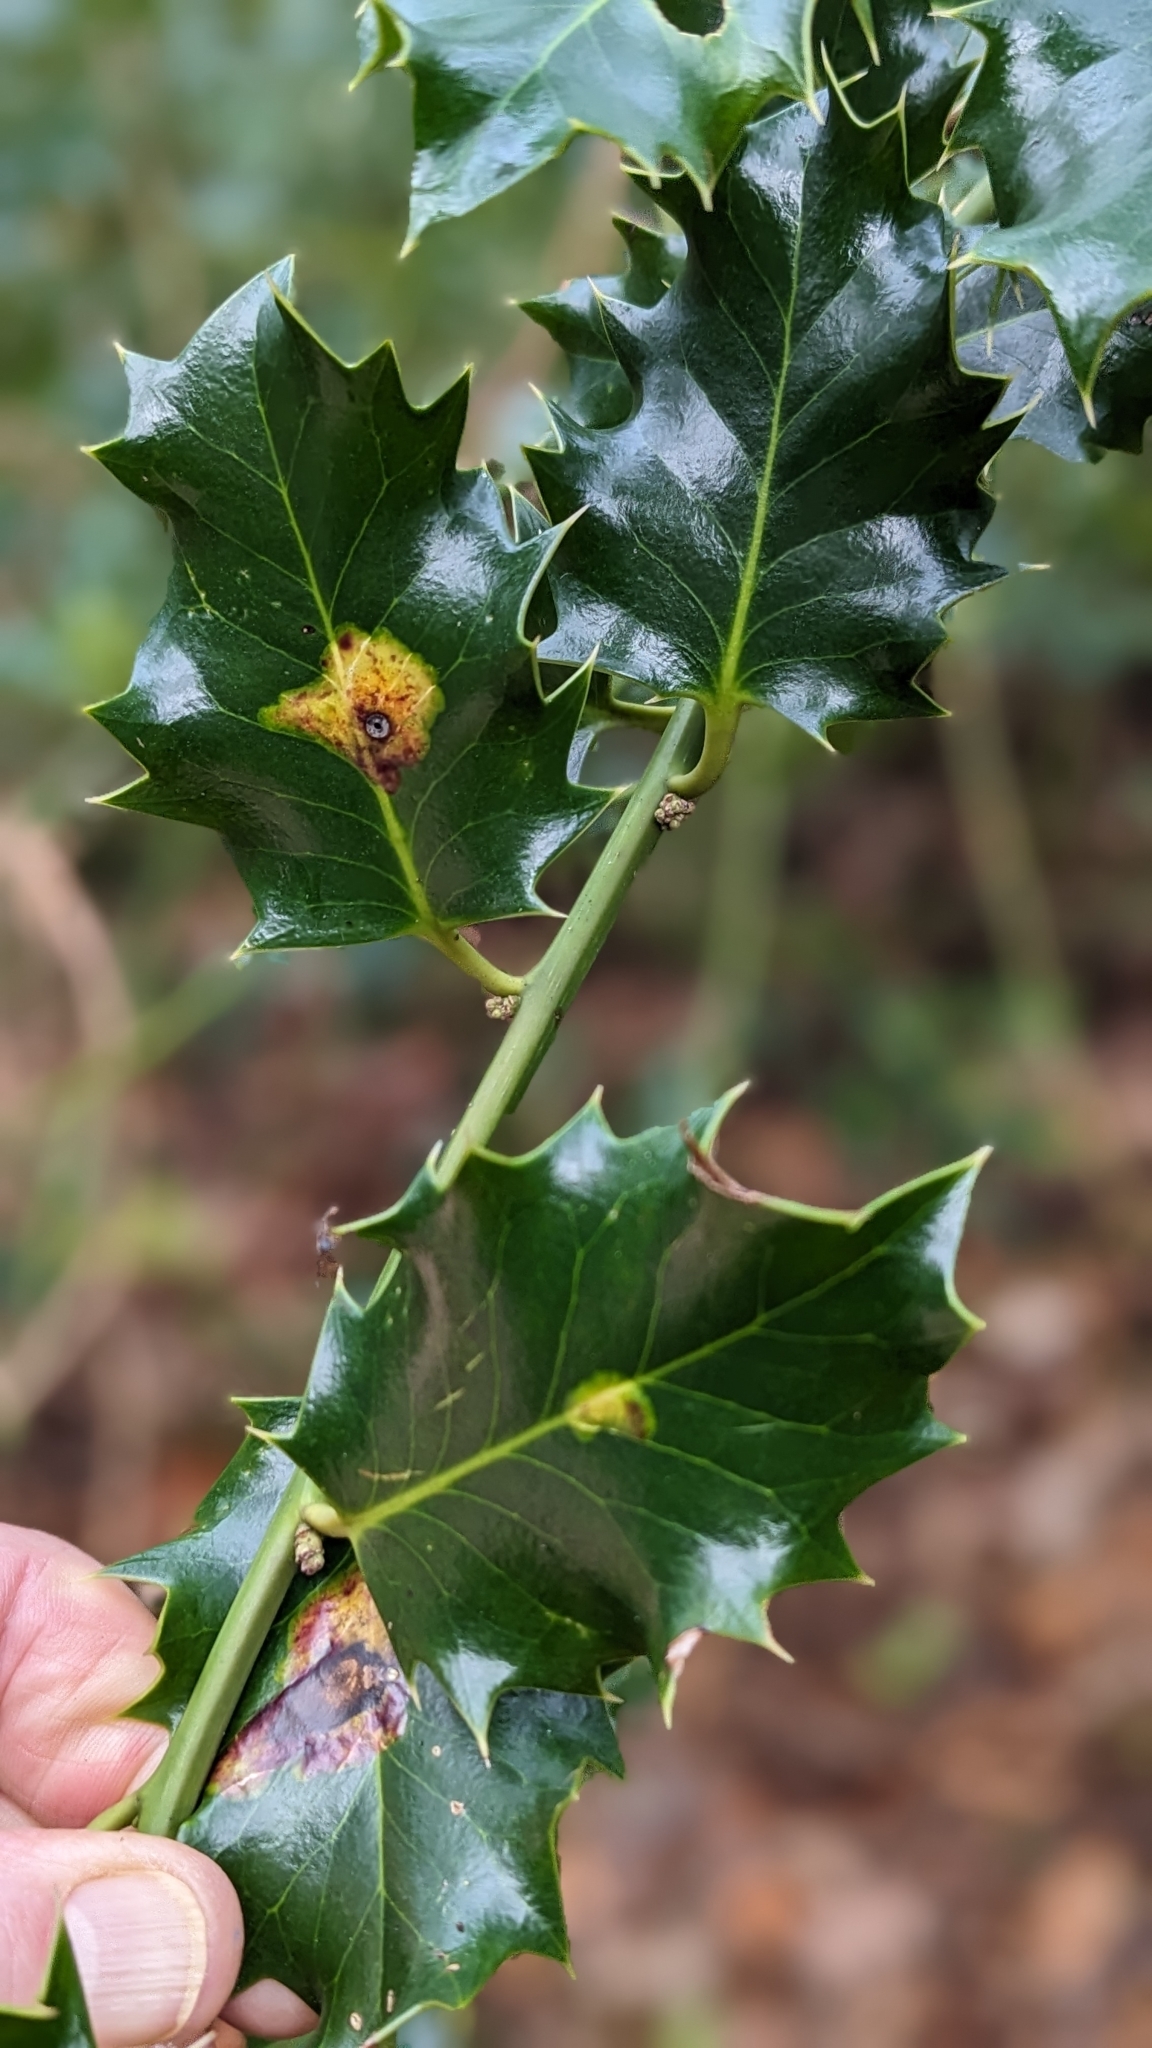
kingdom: Animalia
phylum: Arthropoda
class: Insecta
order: Diptera
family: Agromyzidae
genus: Phytomyza
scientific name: Phytomyza ilicis
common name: Holly leafminer
